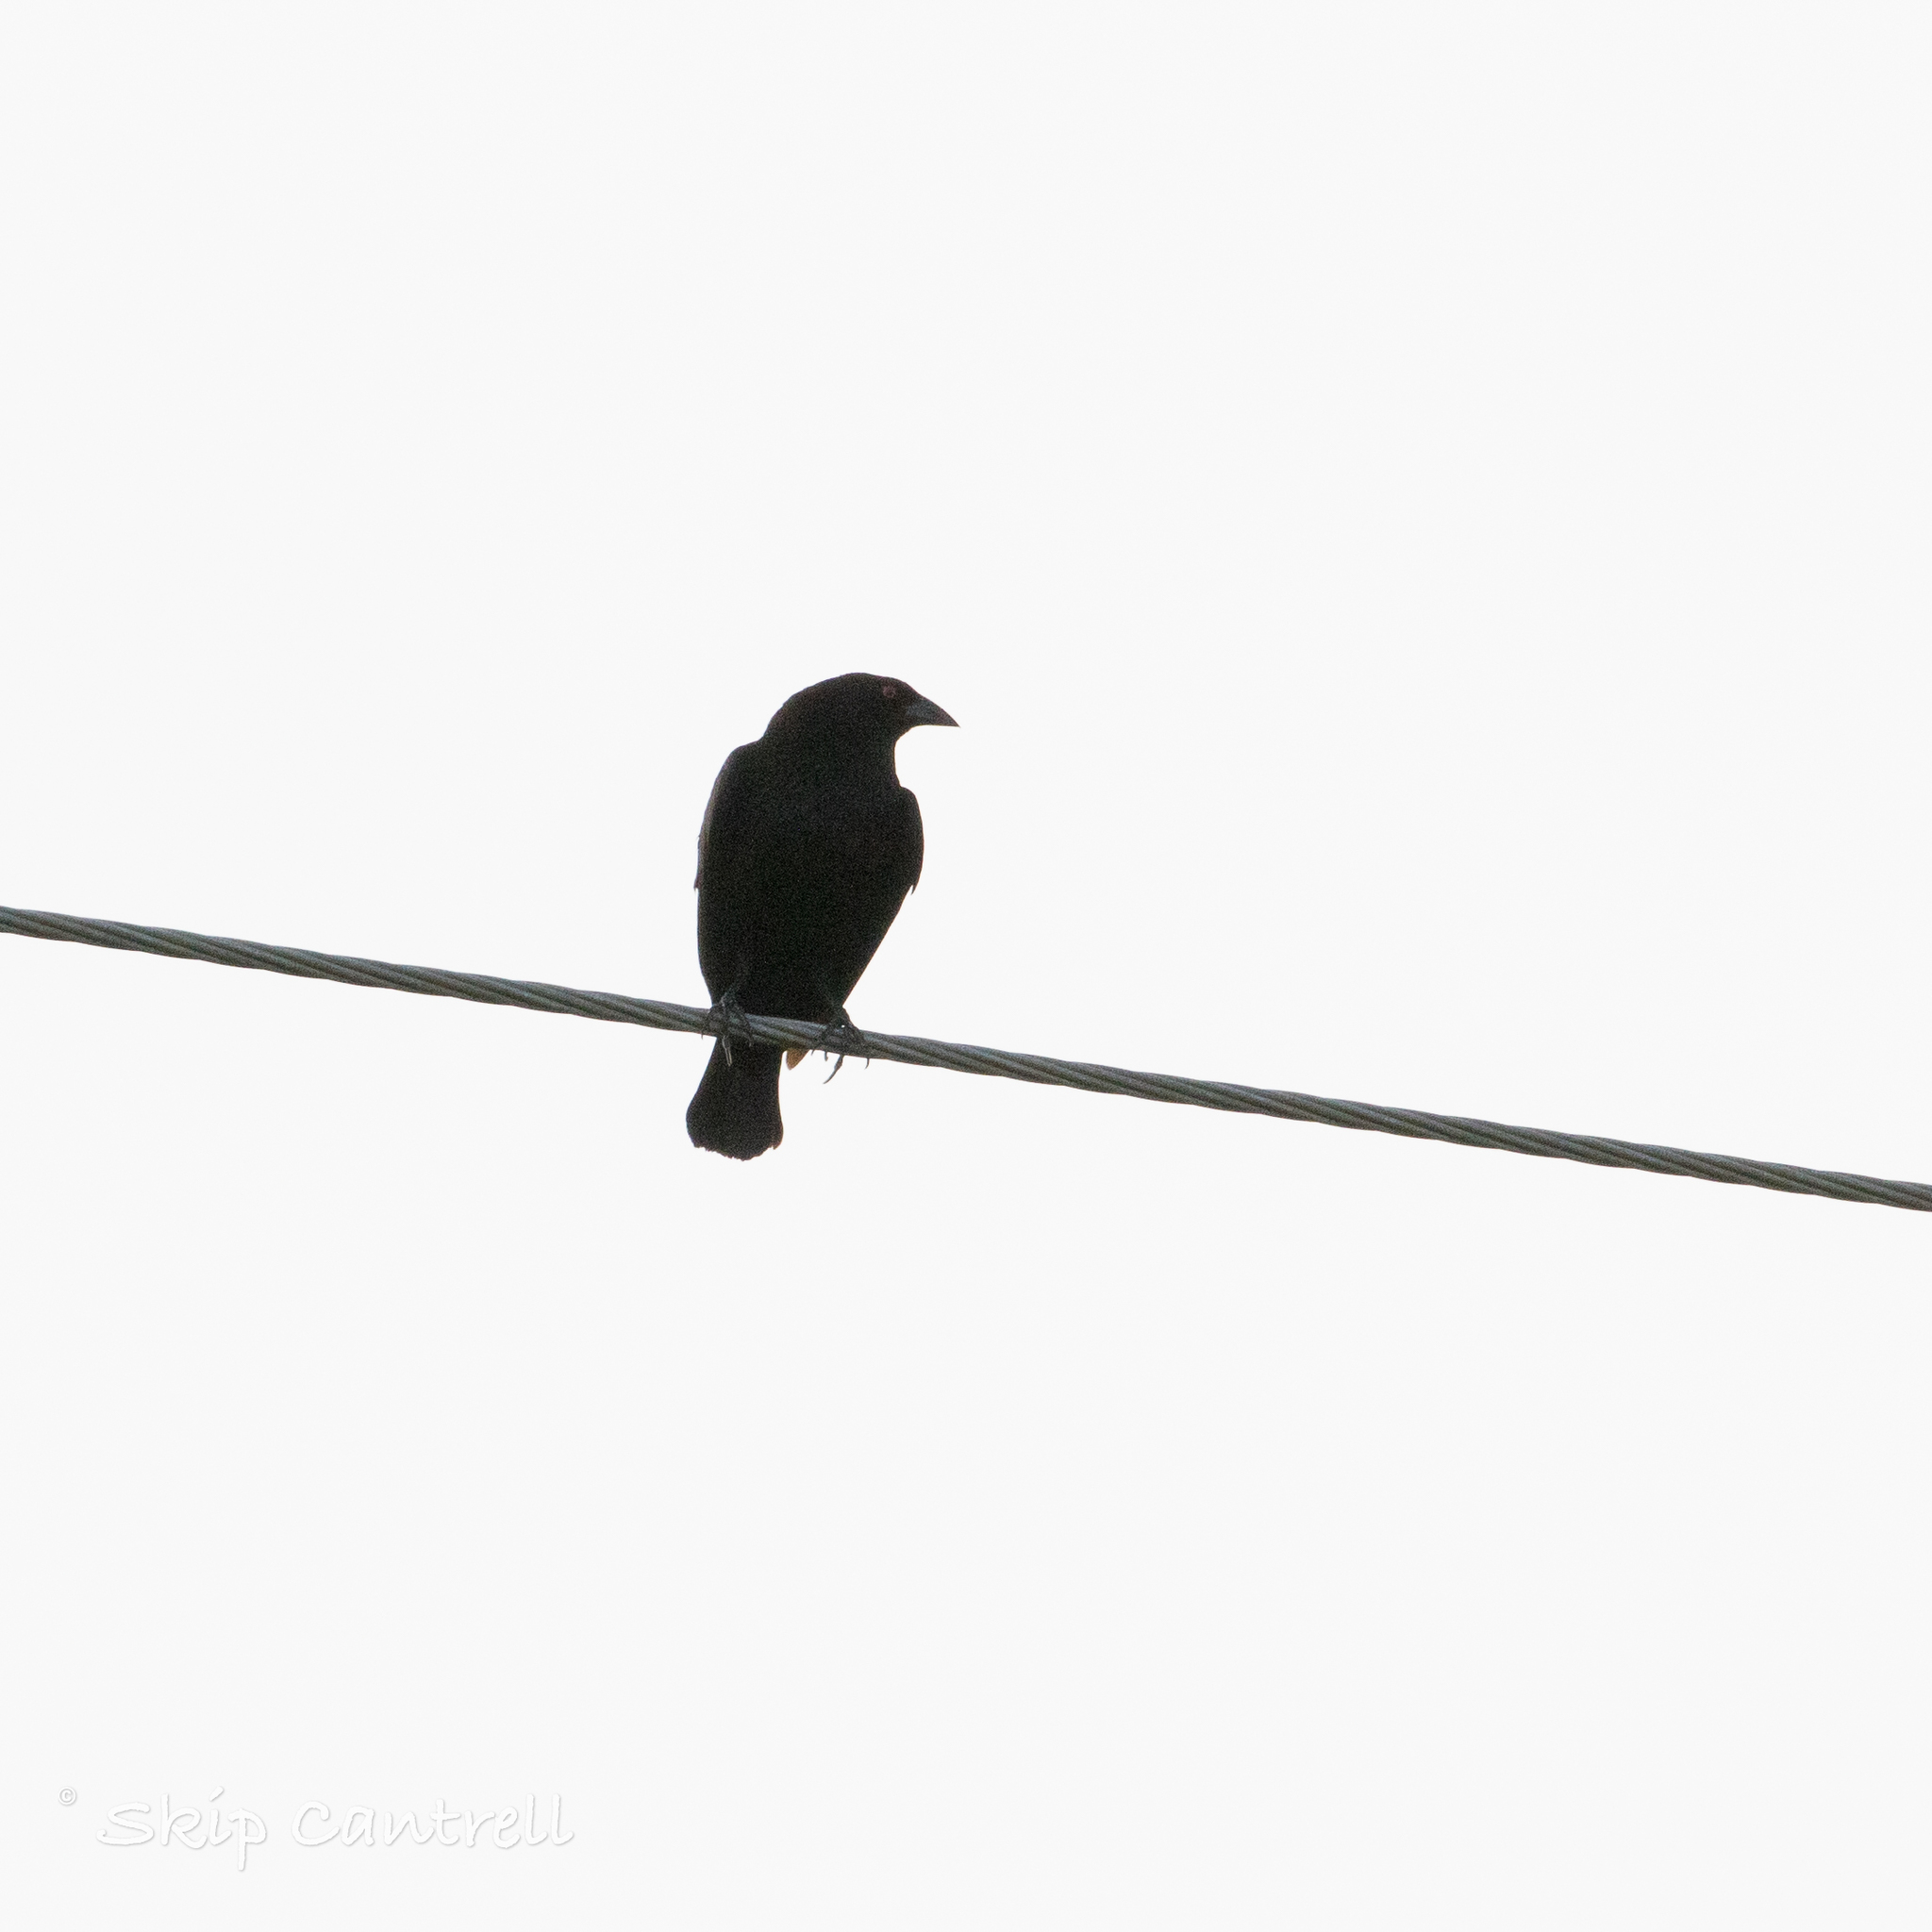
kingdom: Animalia
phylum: Chordata
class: Aves
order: Passeriformes
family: Icteridae
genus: Molothrus
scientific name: Molothrus aeneus
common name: Bronzed cowbird
